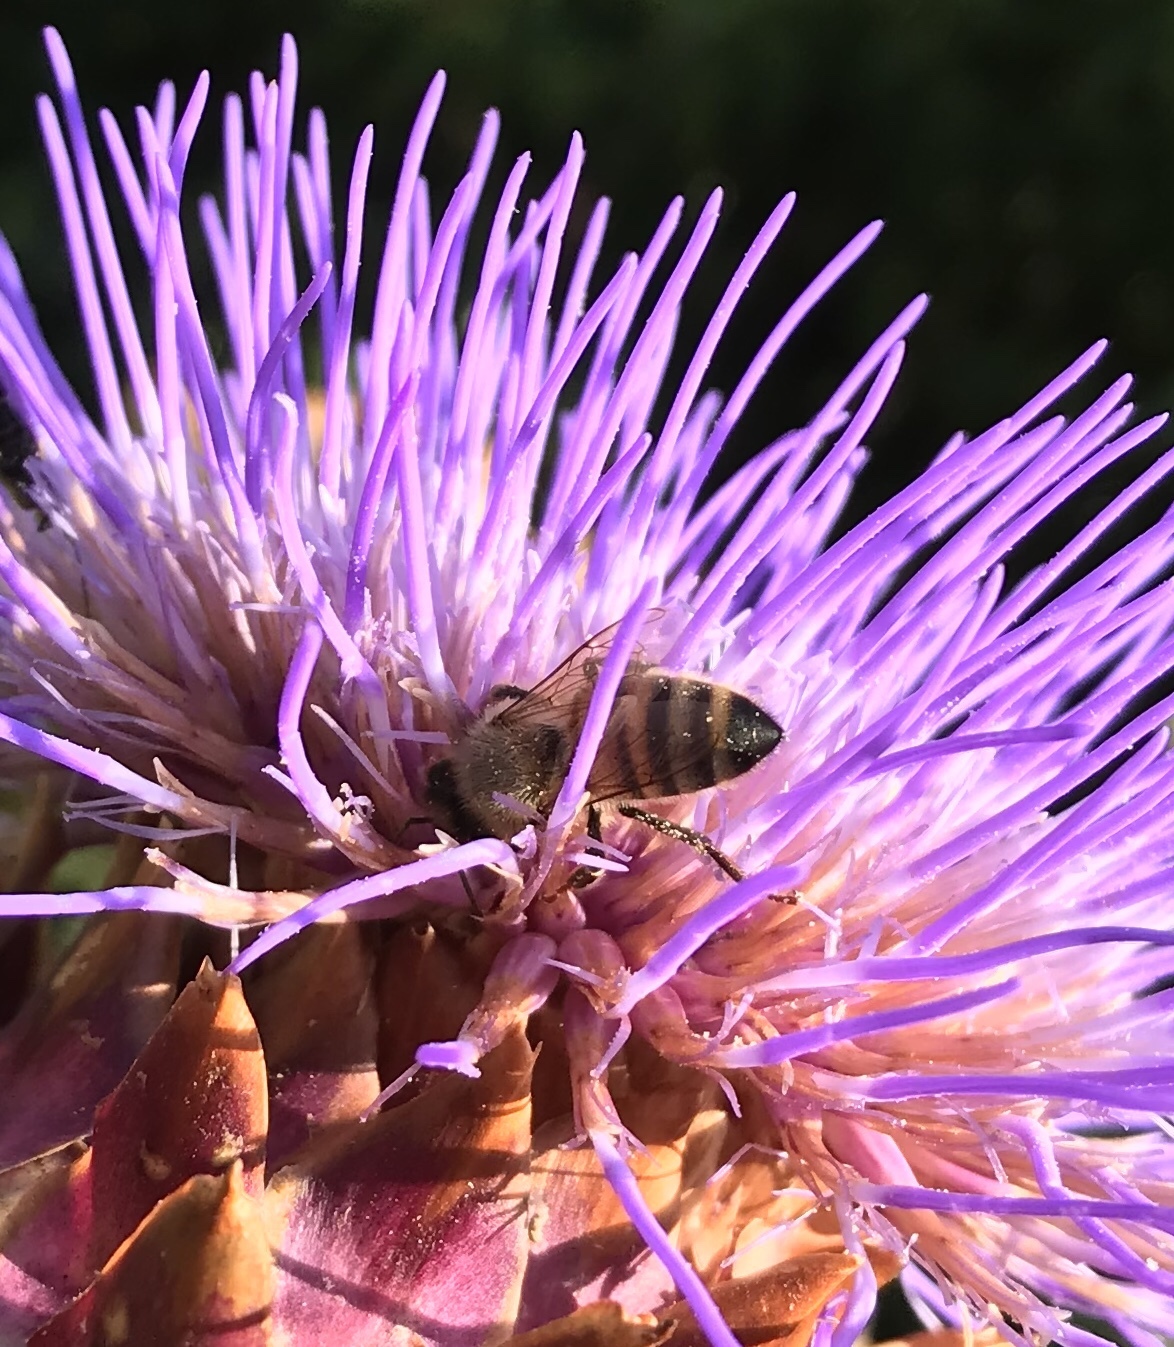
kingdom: Animalia
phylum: Arthropoda
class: Insecta
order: Hymenoptera
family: Apidae
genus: Apis
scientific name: Apis mellifera
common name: Honey bee
